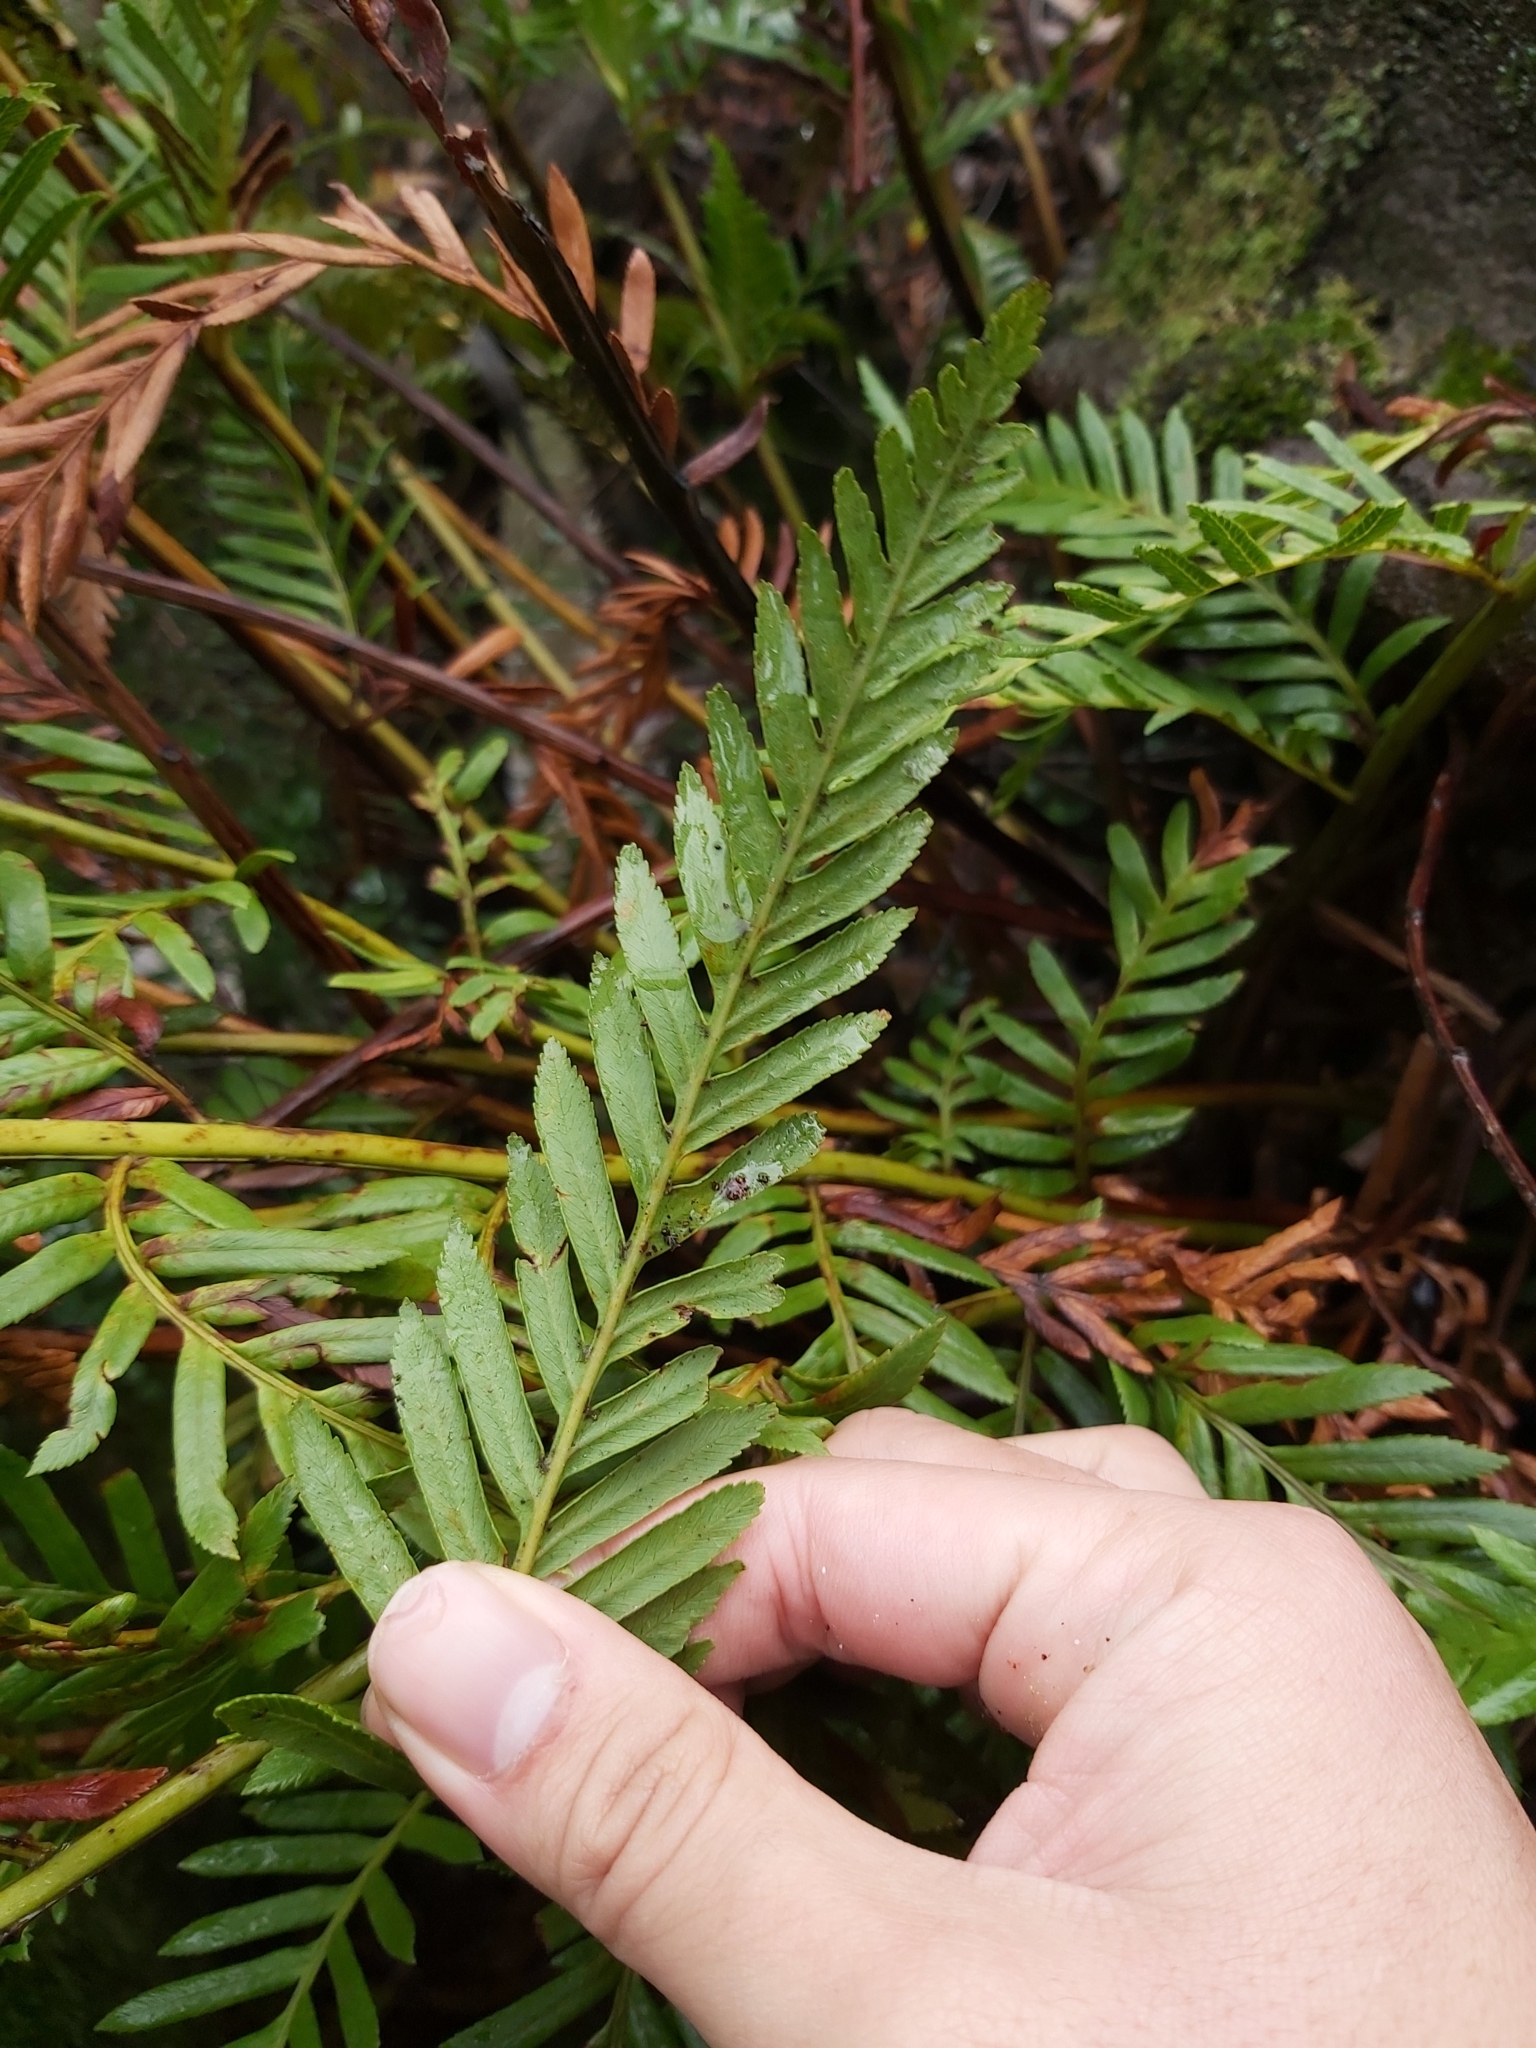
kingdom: Plantae
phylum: Tracheophyta
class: Polypodiopsida
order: Osmundales
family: Osmundaceae
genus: Todea
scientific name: Todea barbara
